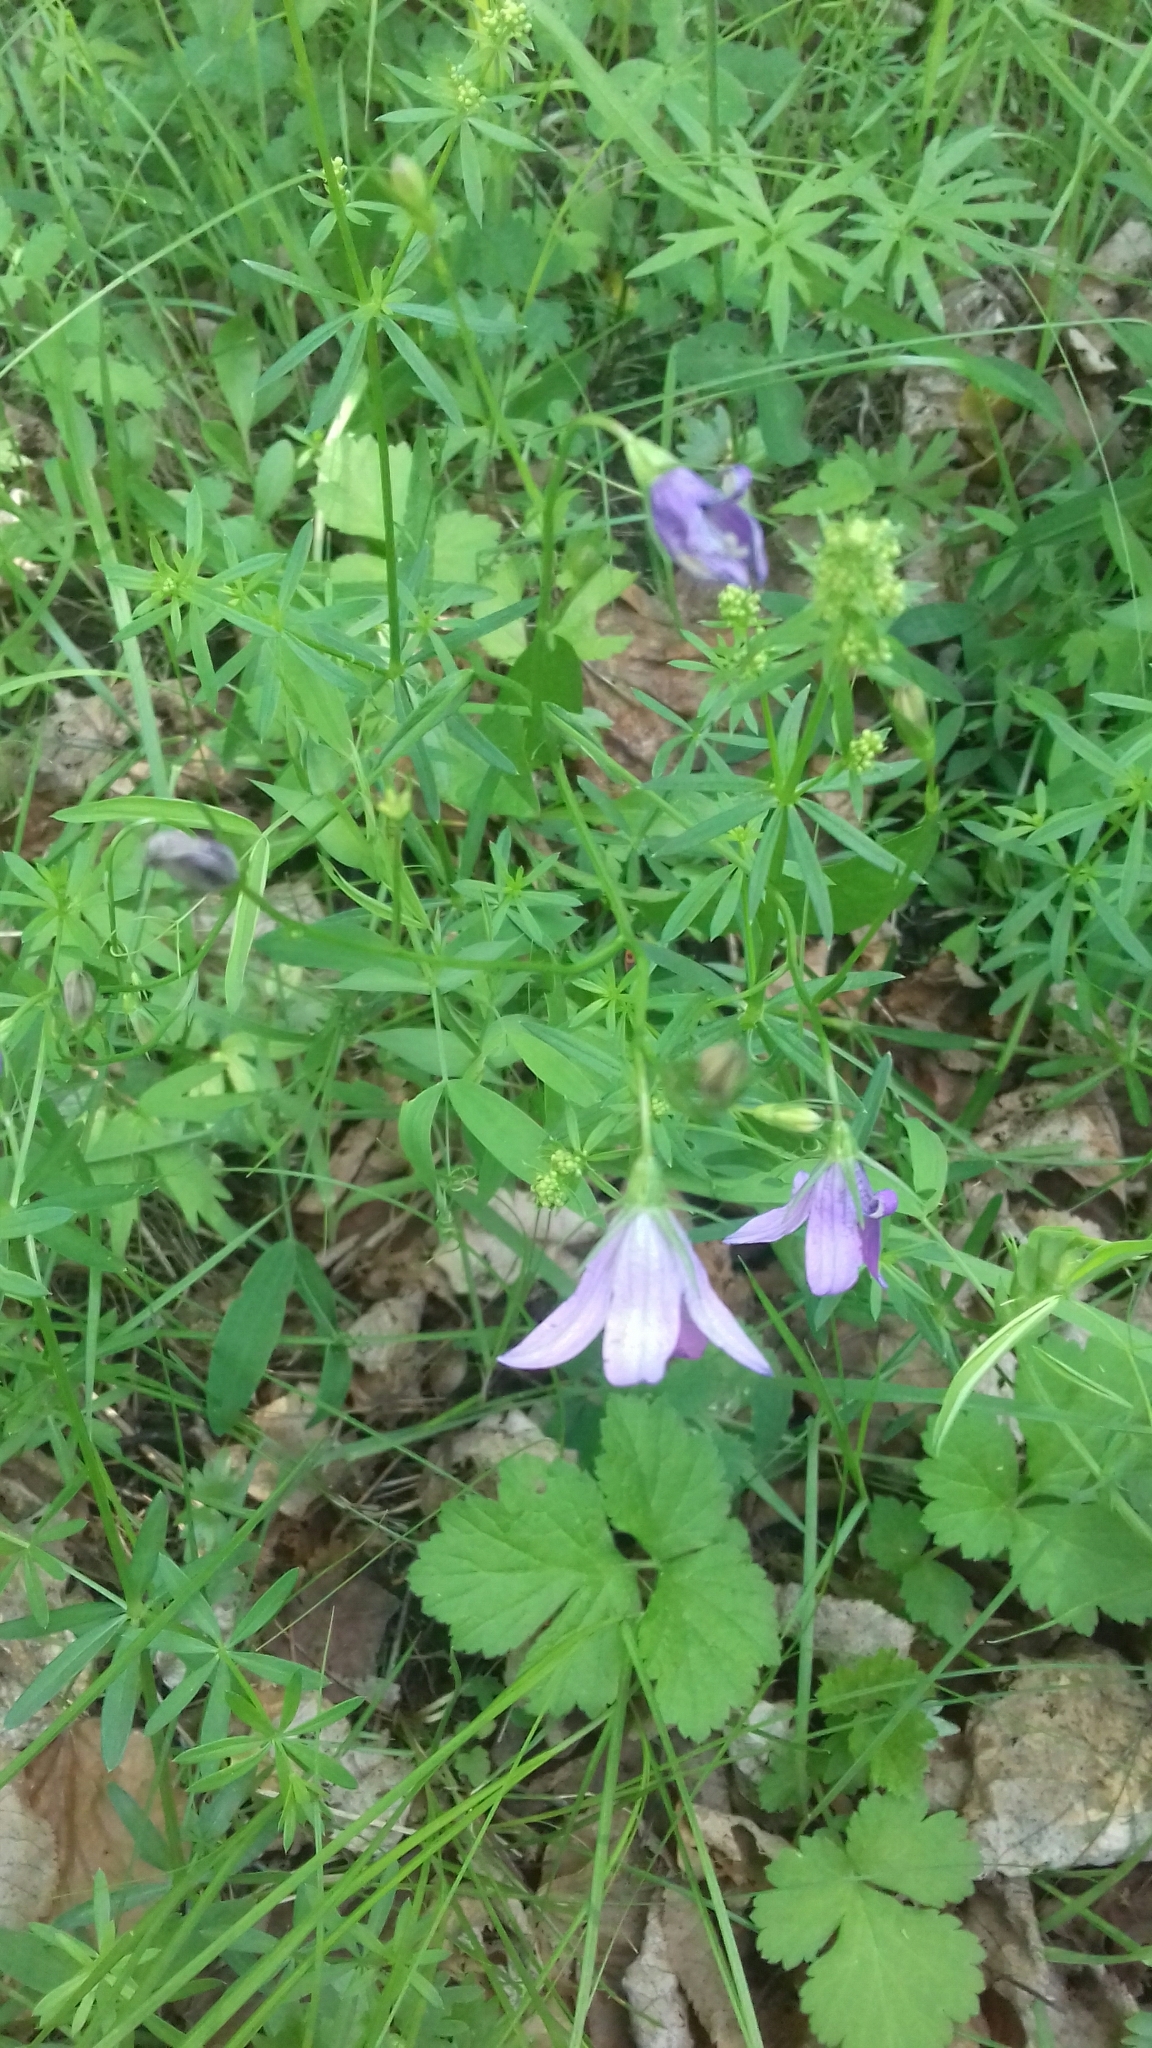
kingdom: Plantae
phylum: Tracheophyta
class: Magnoliopsida
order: Asterales
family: Campanulaceae
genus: Campanula
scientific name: Campanula patula
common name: Spreading bellflower
